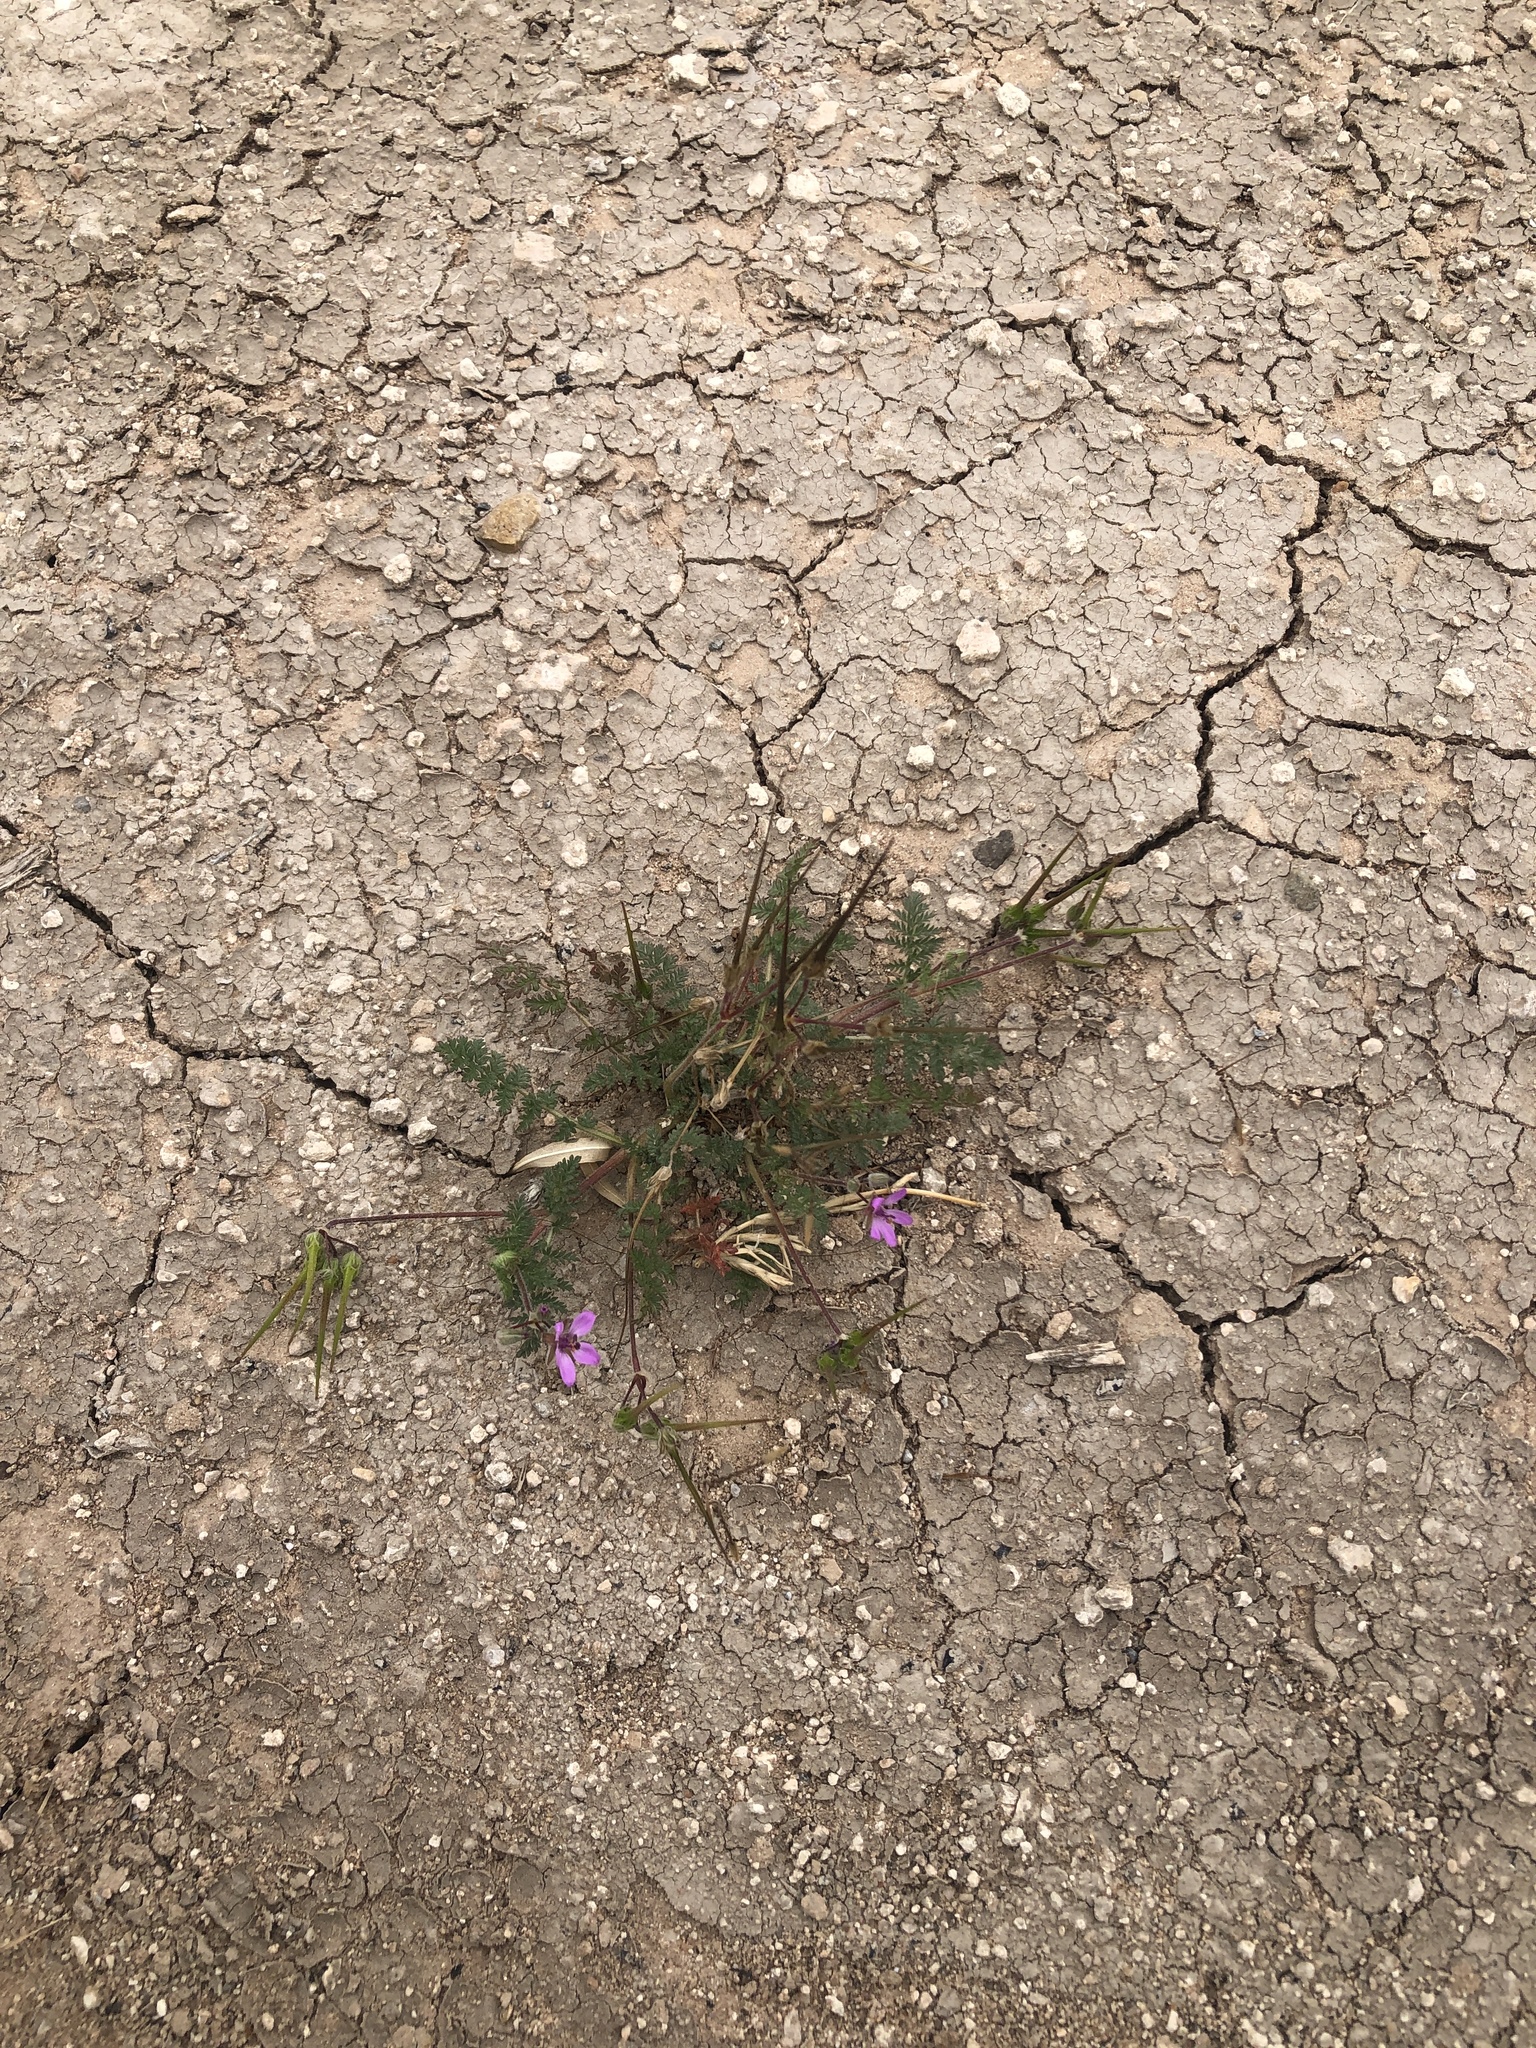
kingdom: Plantae
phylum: Tracheophyta
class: Magnoliopsida
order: Geraniales
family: Geraniaceae
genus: Erodium
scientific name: Erodium cicutarium
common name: Common stork's-bill
